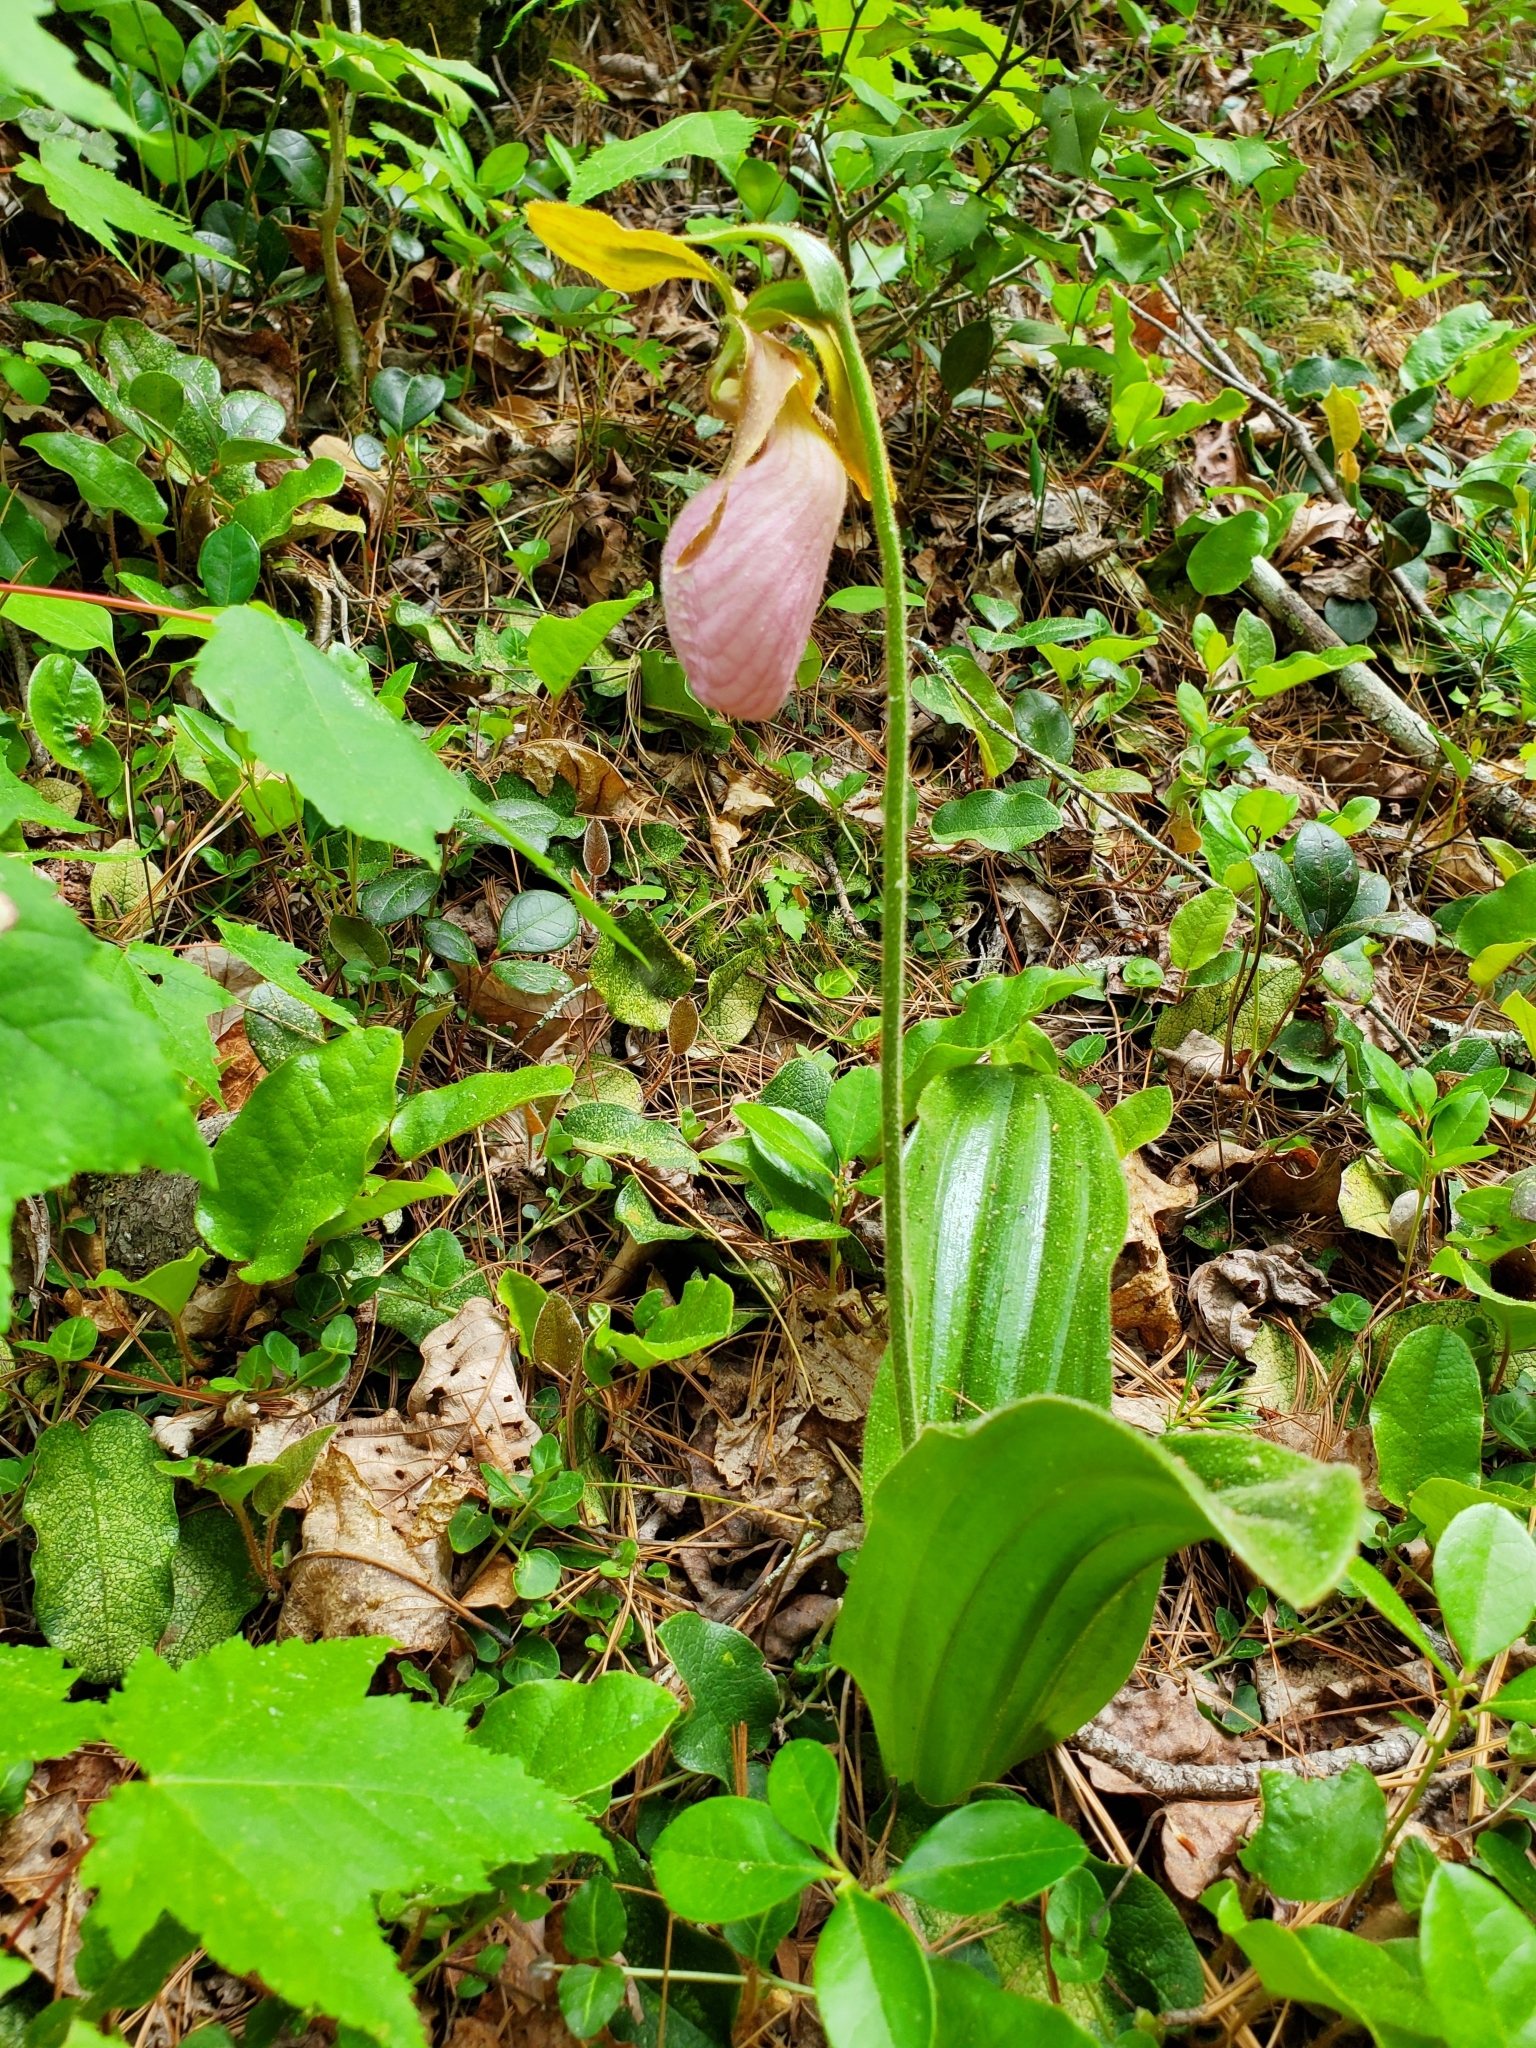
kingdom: Plantae
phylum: Tracheophyta
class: Liliopsida
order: Asparagales
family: Orchidaceae
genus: Cypripedium
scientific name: Cypripedium acaule
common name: Pink lady's-slipper
